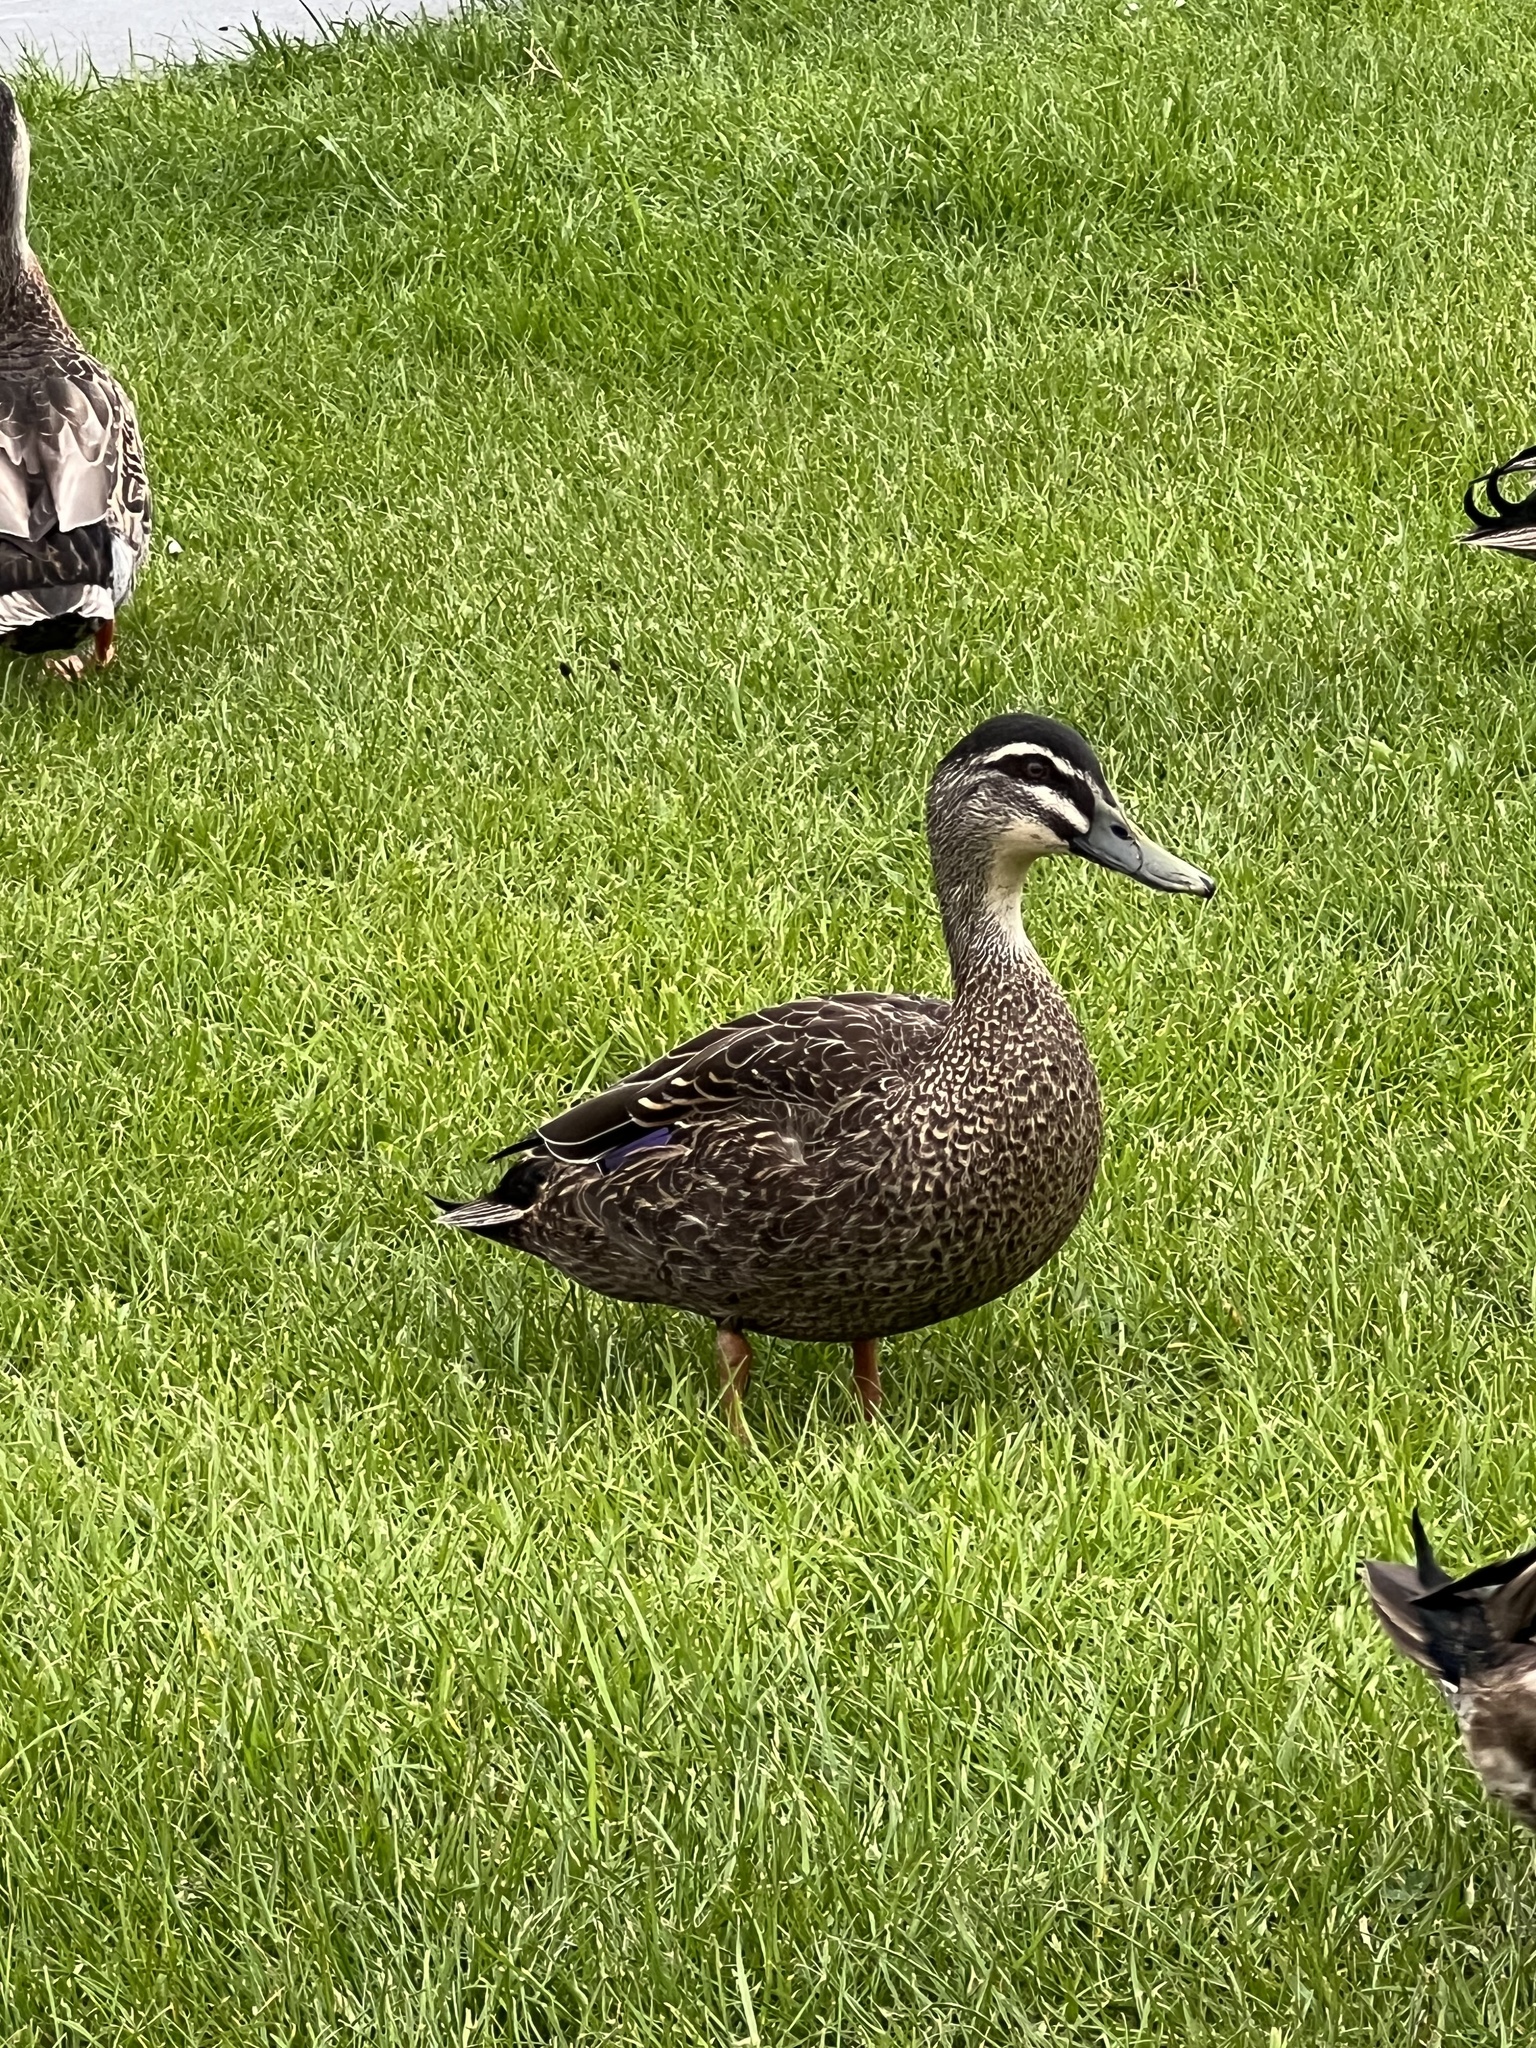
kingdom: Animalia
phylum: Chordata
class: Aves
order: Anseriformes
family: Anatidae
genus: Anas
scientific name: Anas
